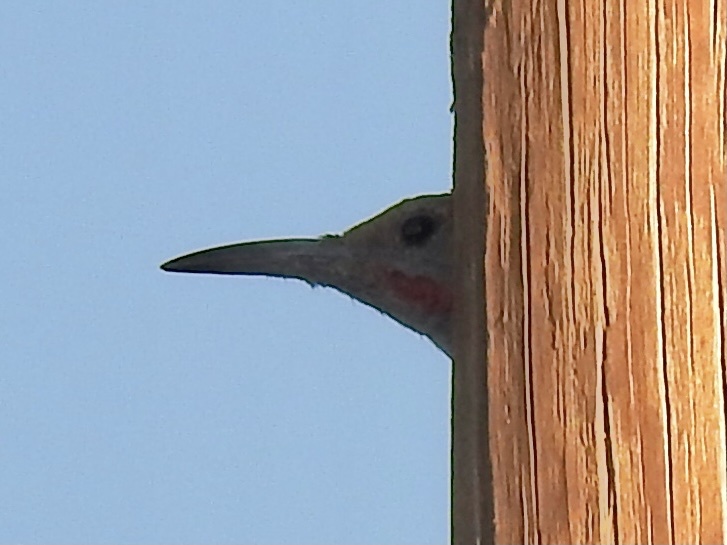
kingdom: Animalia
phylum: Chordata
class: Aves
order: Piciformes
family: Picidae
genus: Colaptes
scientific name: Colaptes auratus
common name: Northern flicker
